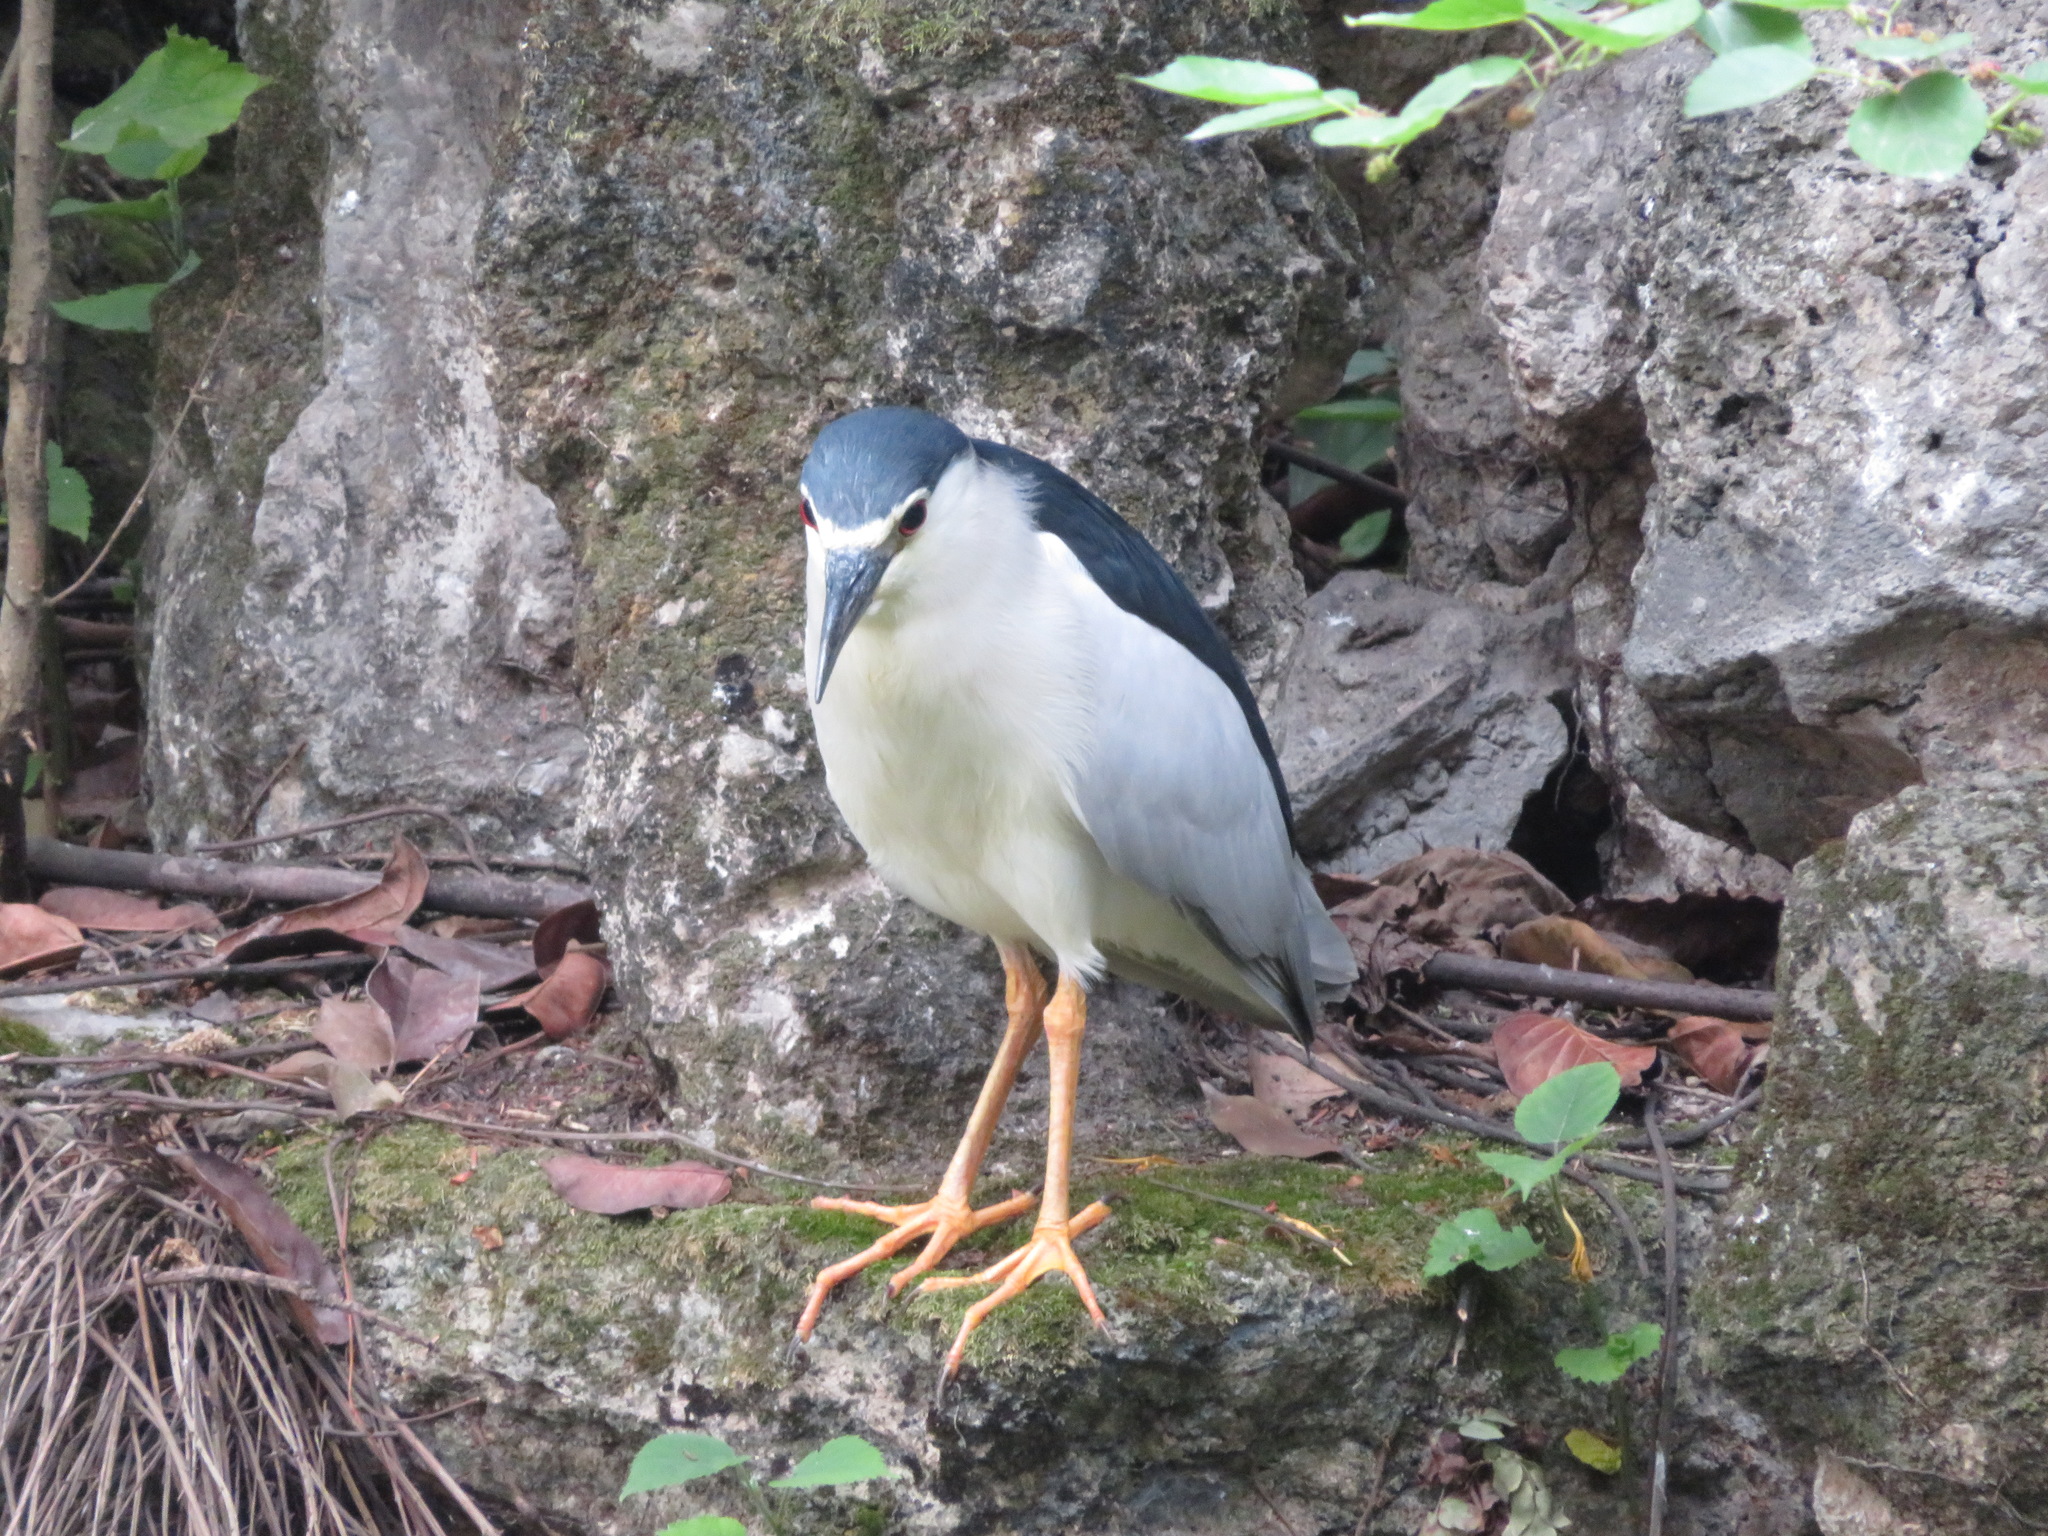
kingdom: Animalia
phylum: Chordata
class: Aves
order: Pelecaniformes
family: Ardeidae
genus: Nycticorax
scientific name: Nycticorax nycticorax
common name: Black-crowned night heron
